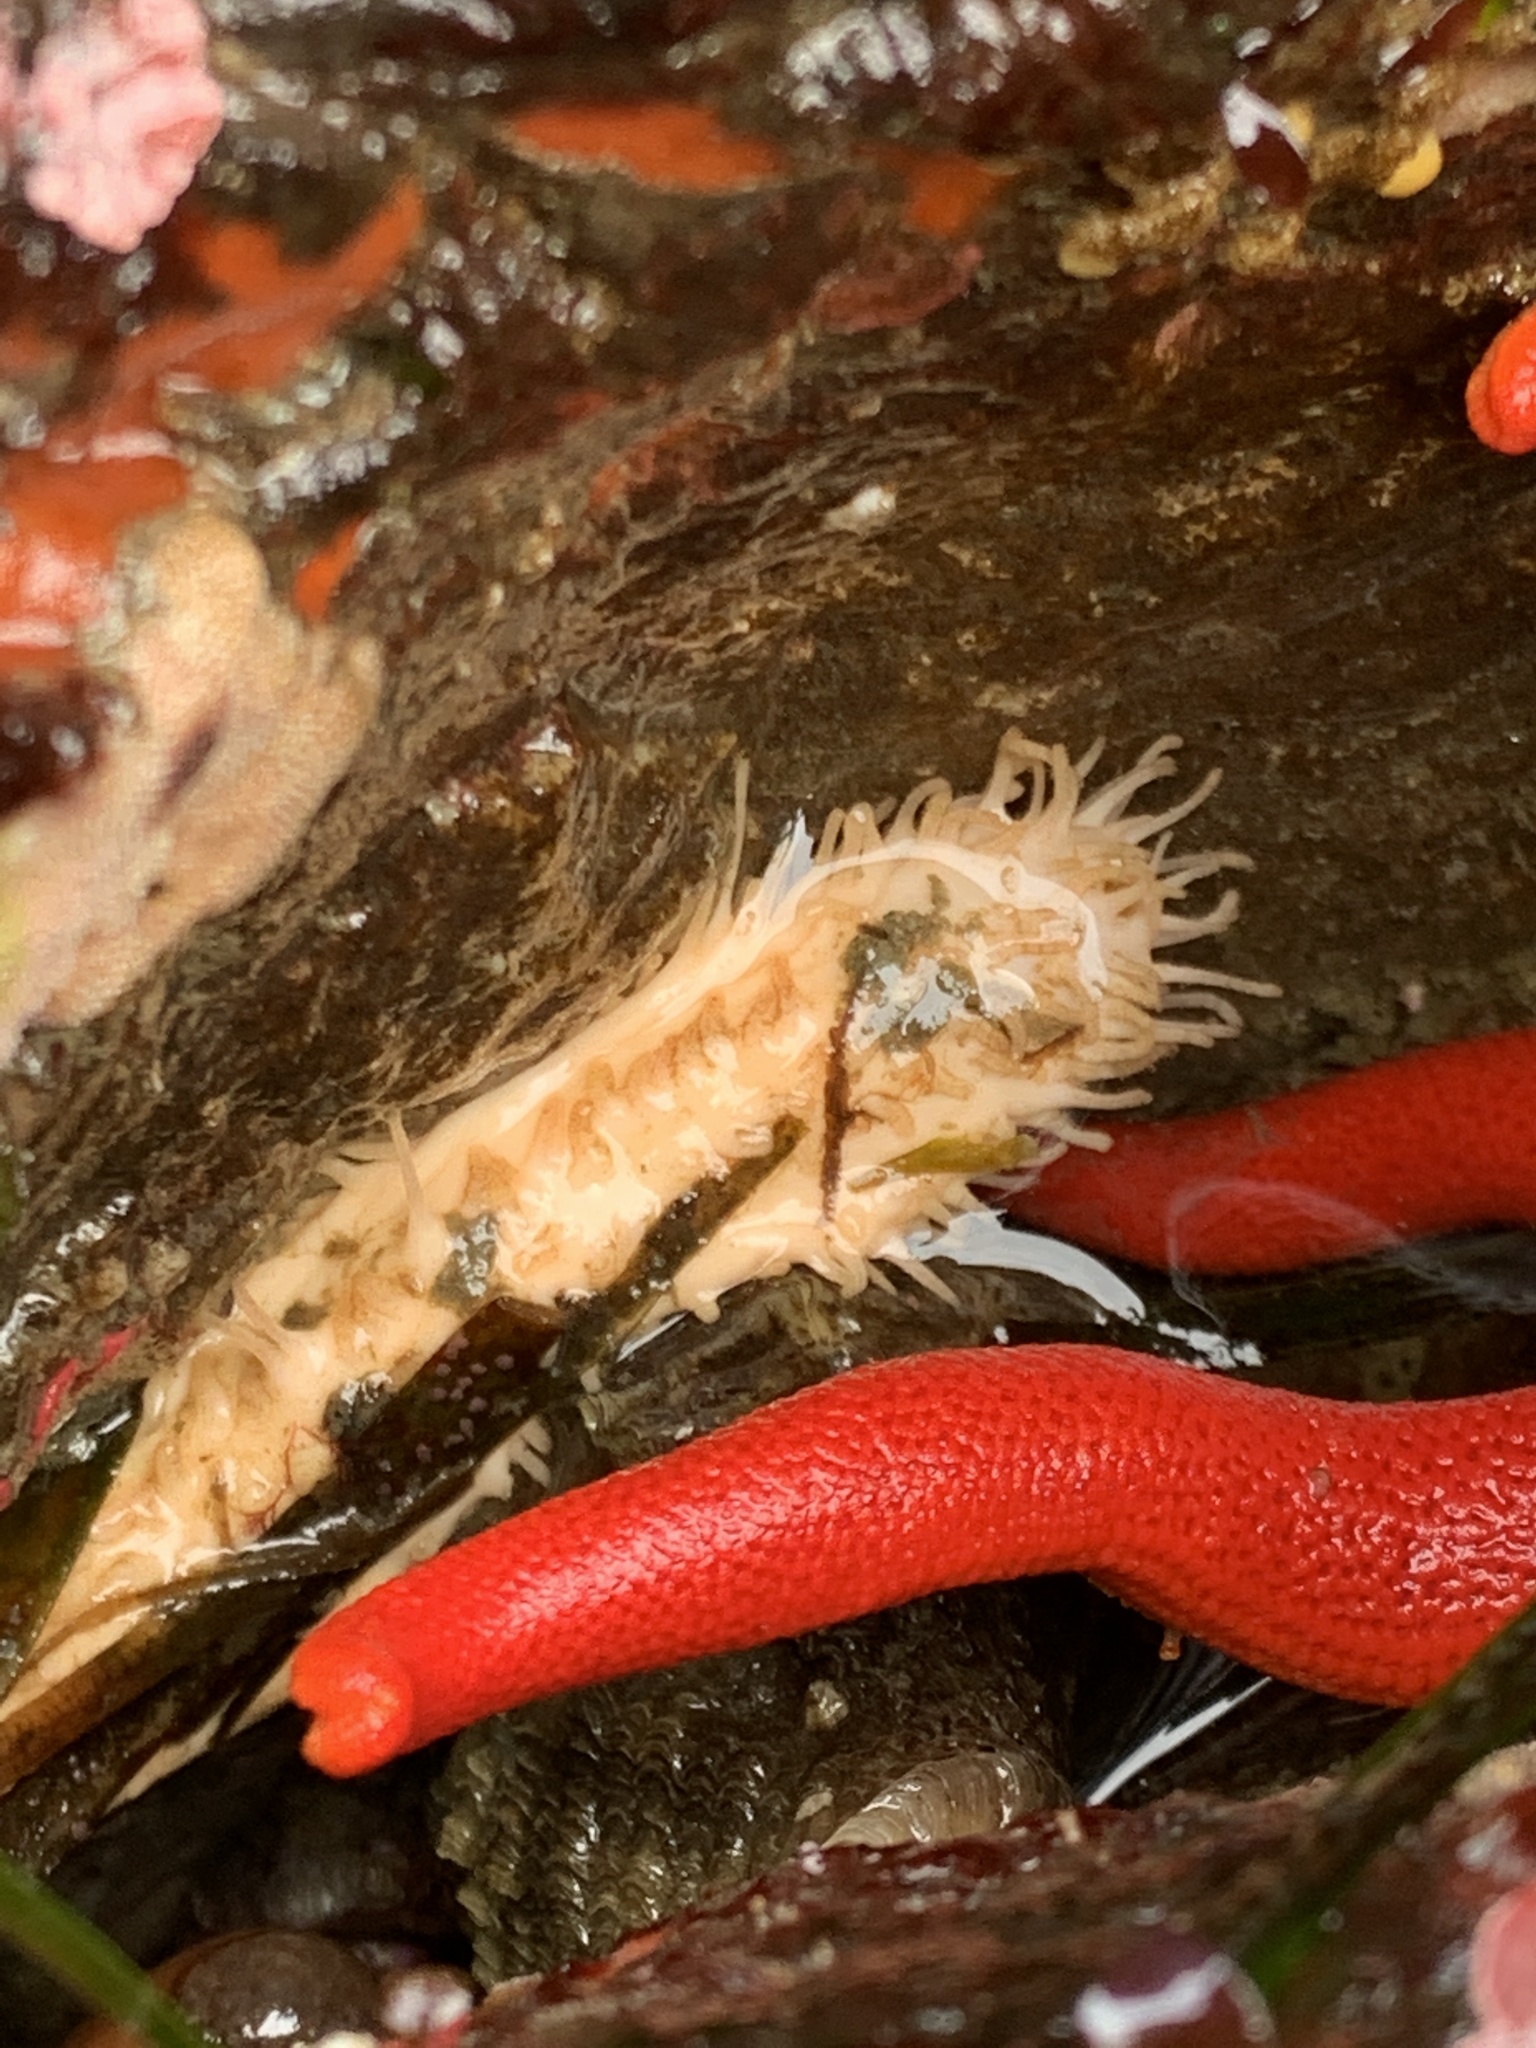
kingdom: Animalia
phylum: Echinodermata
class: Holothuroidea
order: Dendrochirotida
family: Sclerodactylidae
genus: Eupentacta
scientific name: Eupentacta quinquesemita
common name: Pentamerous sea cucumber
